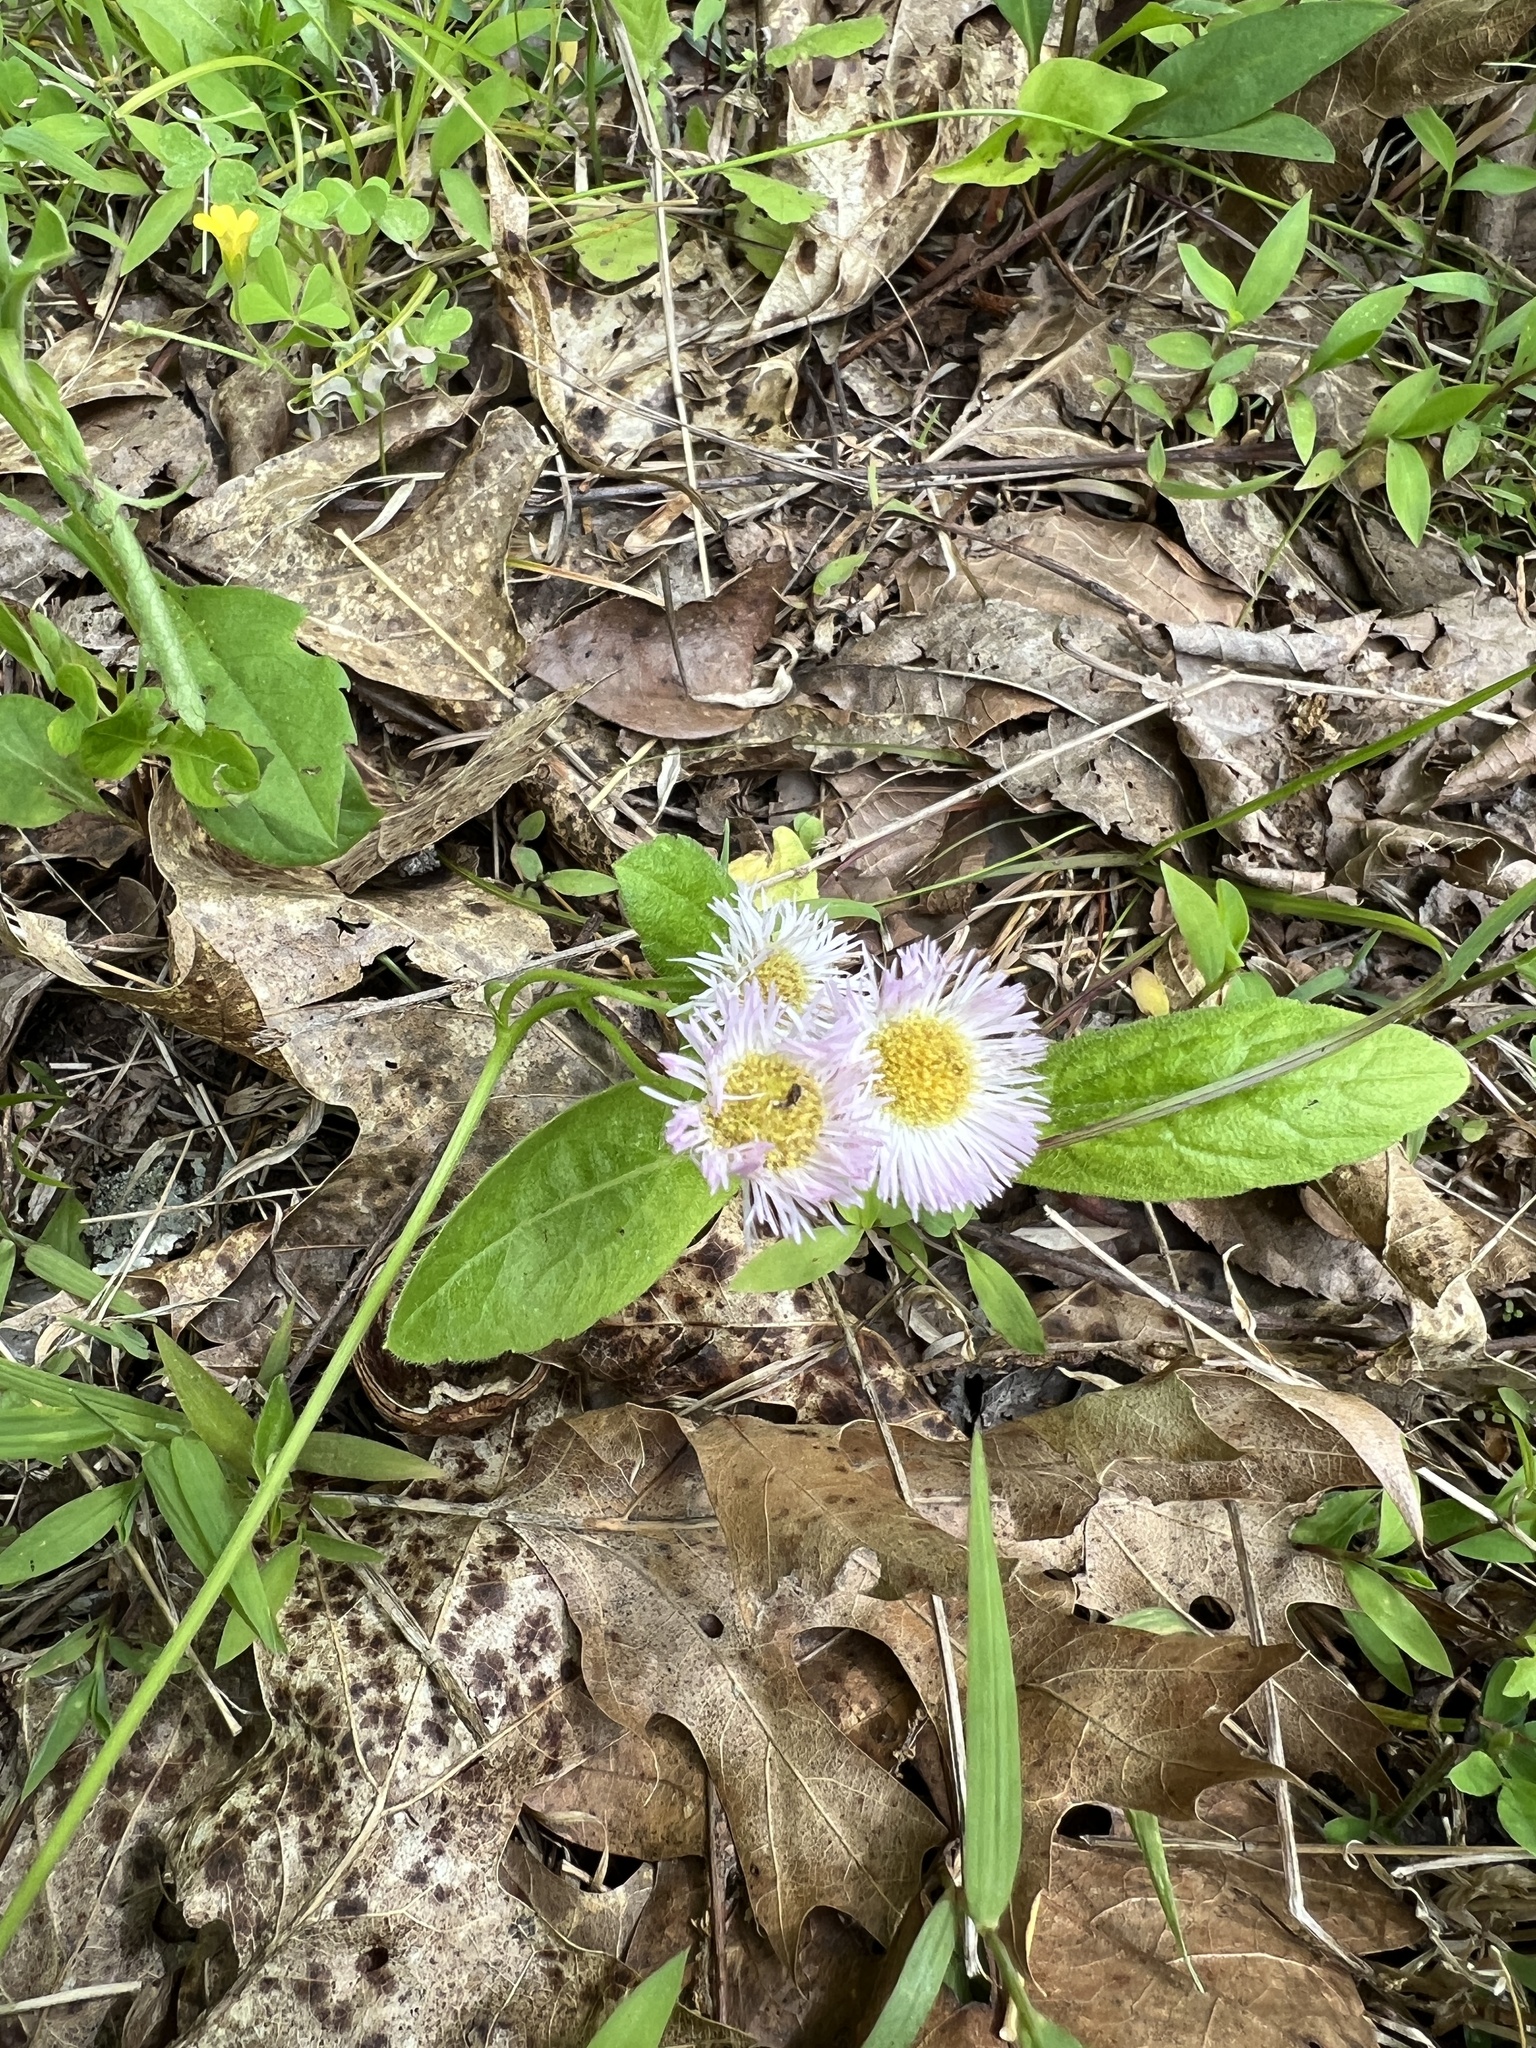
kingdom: Plantae
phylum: Tracheophyta
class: Magnoliopsida
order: Asterales
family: Asteraceae
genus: Erigeron
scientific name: Erigeron philadelphicus
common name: Robin's-plantain
